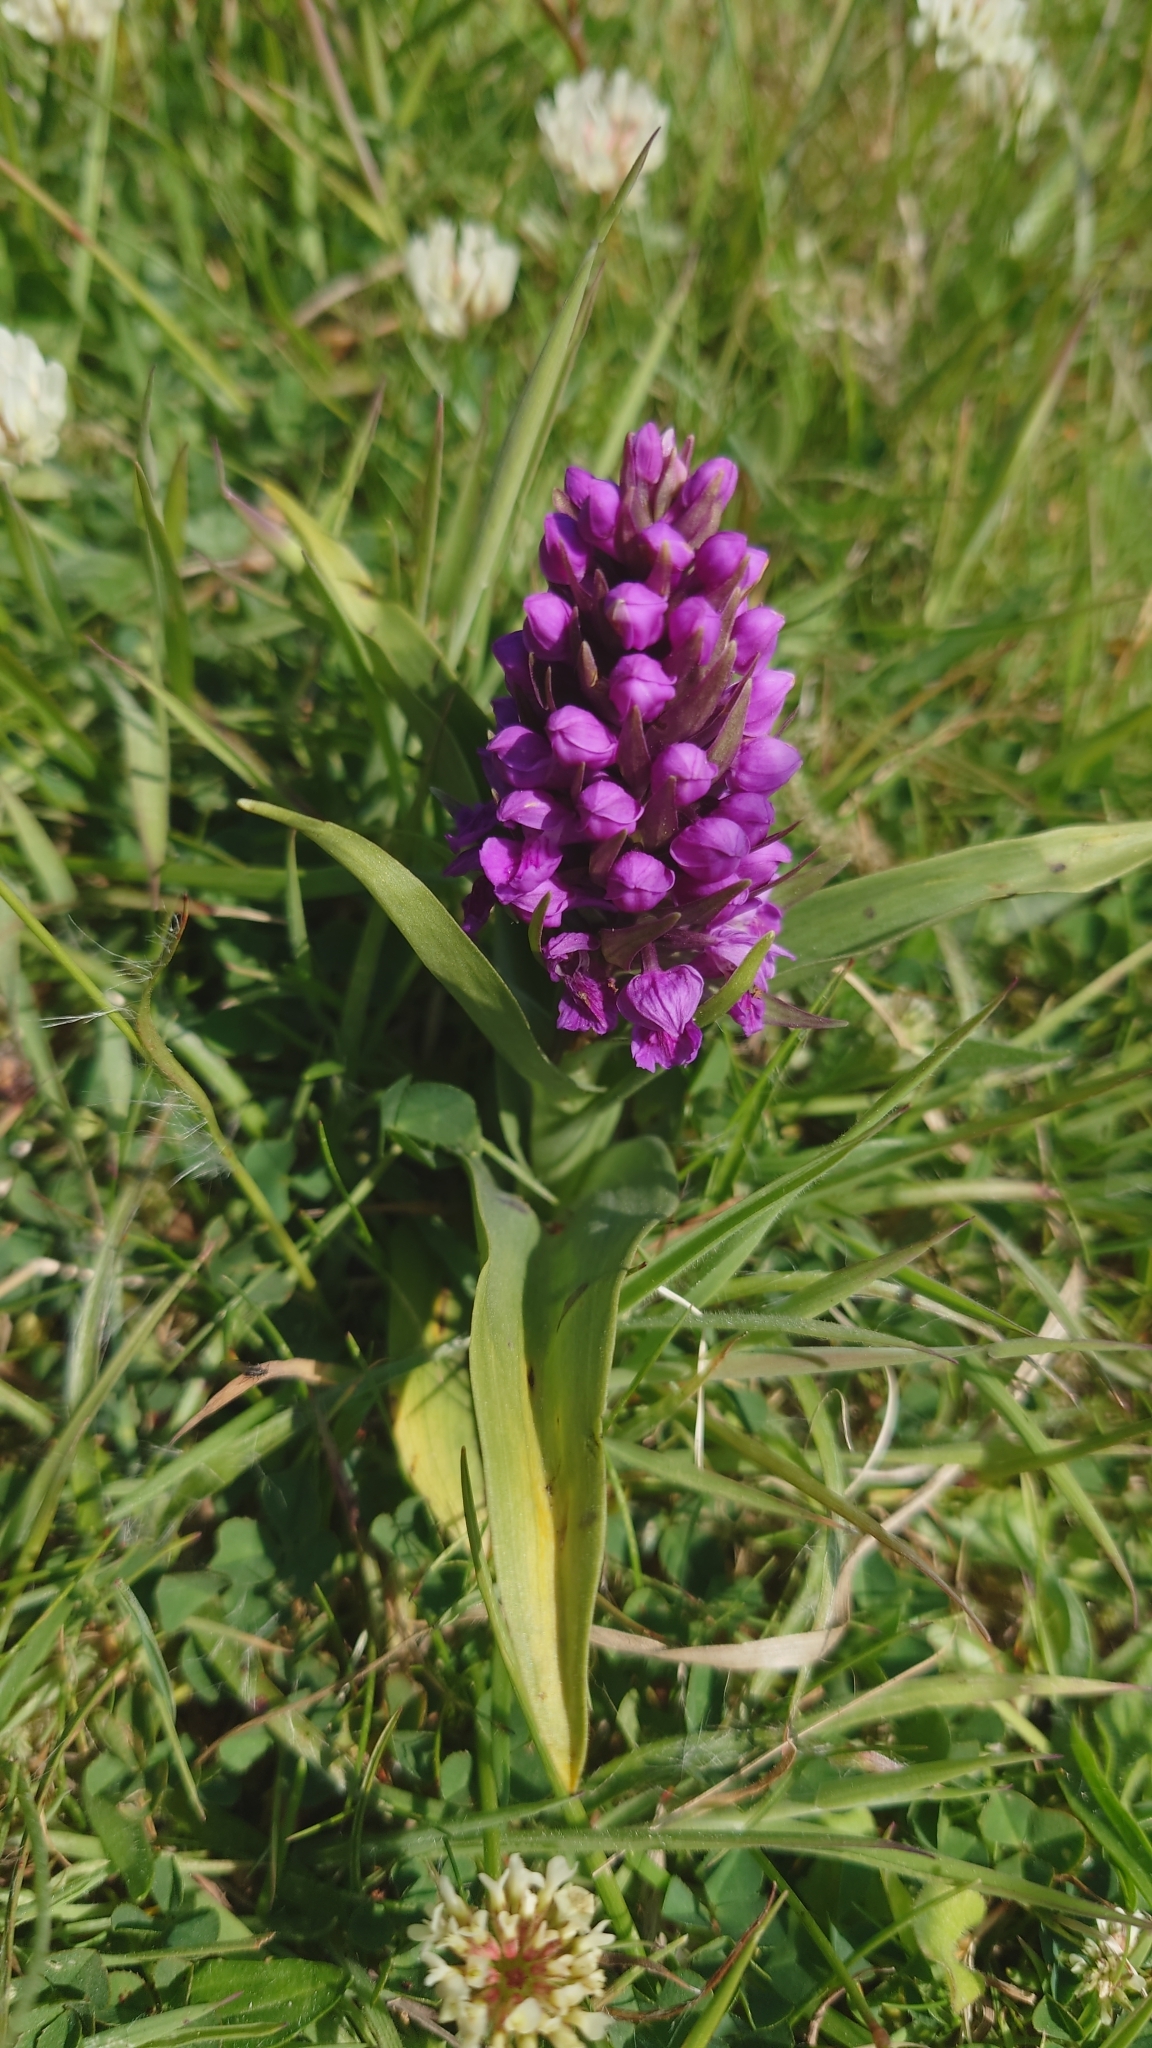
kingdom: Plantae
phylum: Tracheophyta
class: Liliopsida
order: Asparagales
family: Orchidaceae
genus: Dactylorhiza
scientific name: Dactylorhiza majalis
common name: Marsh orchid
